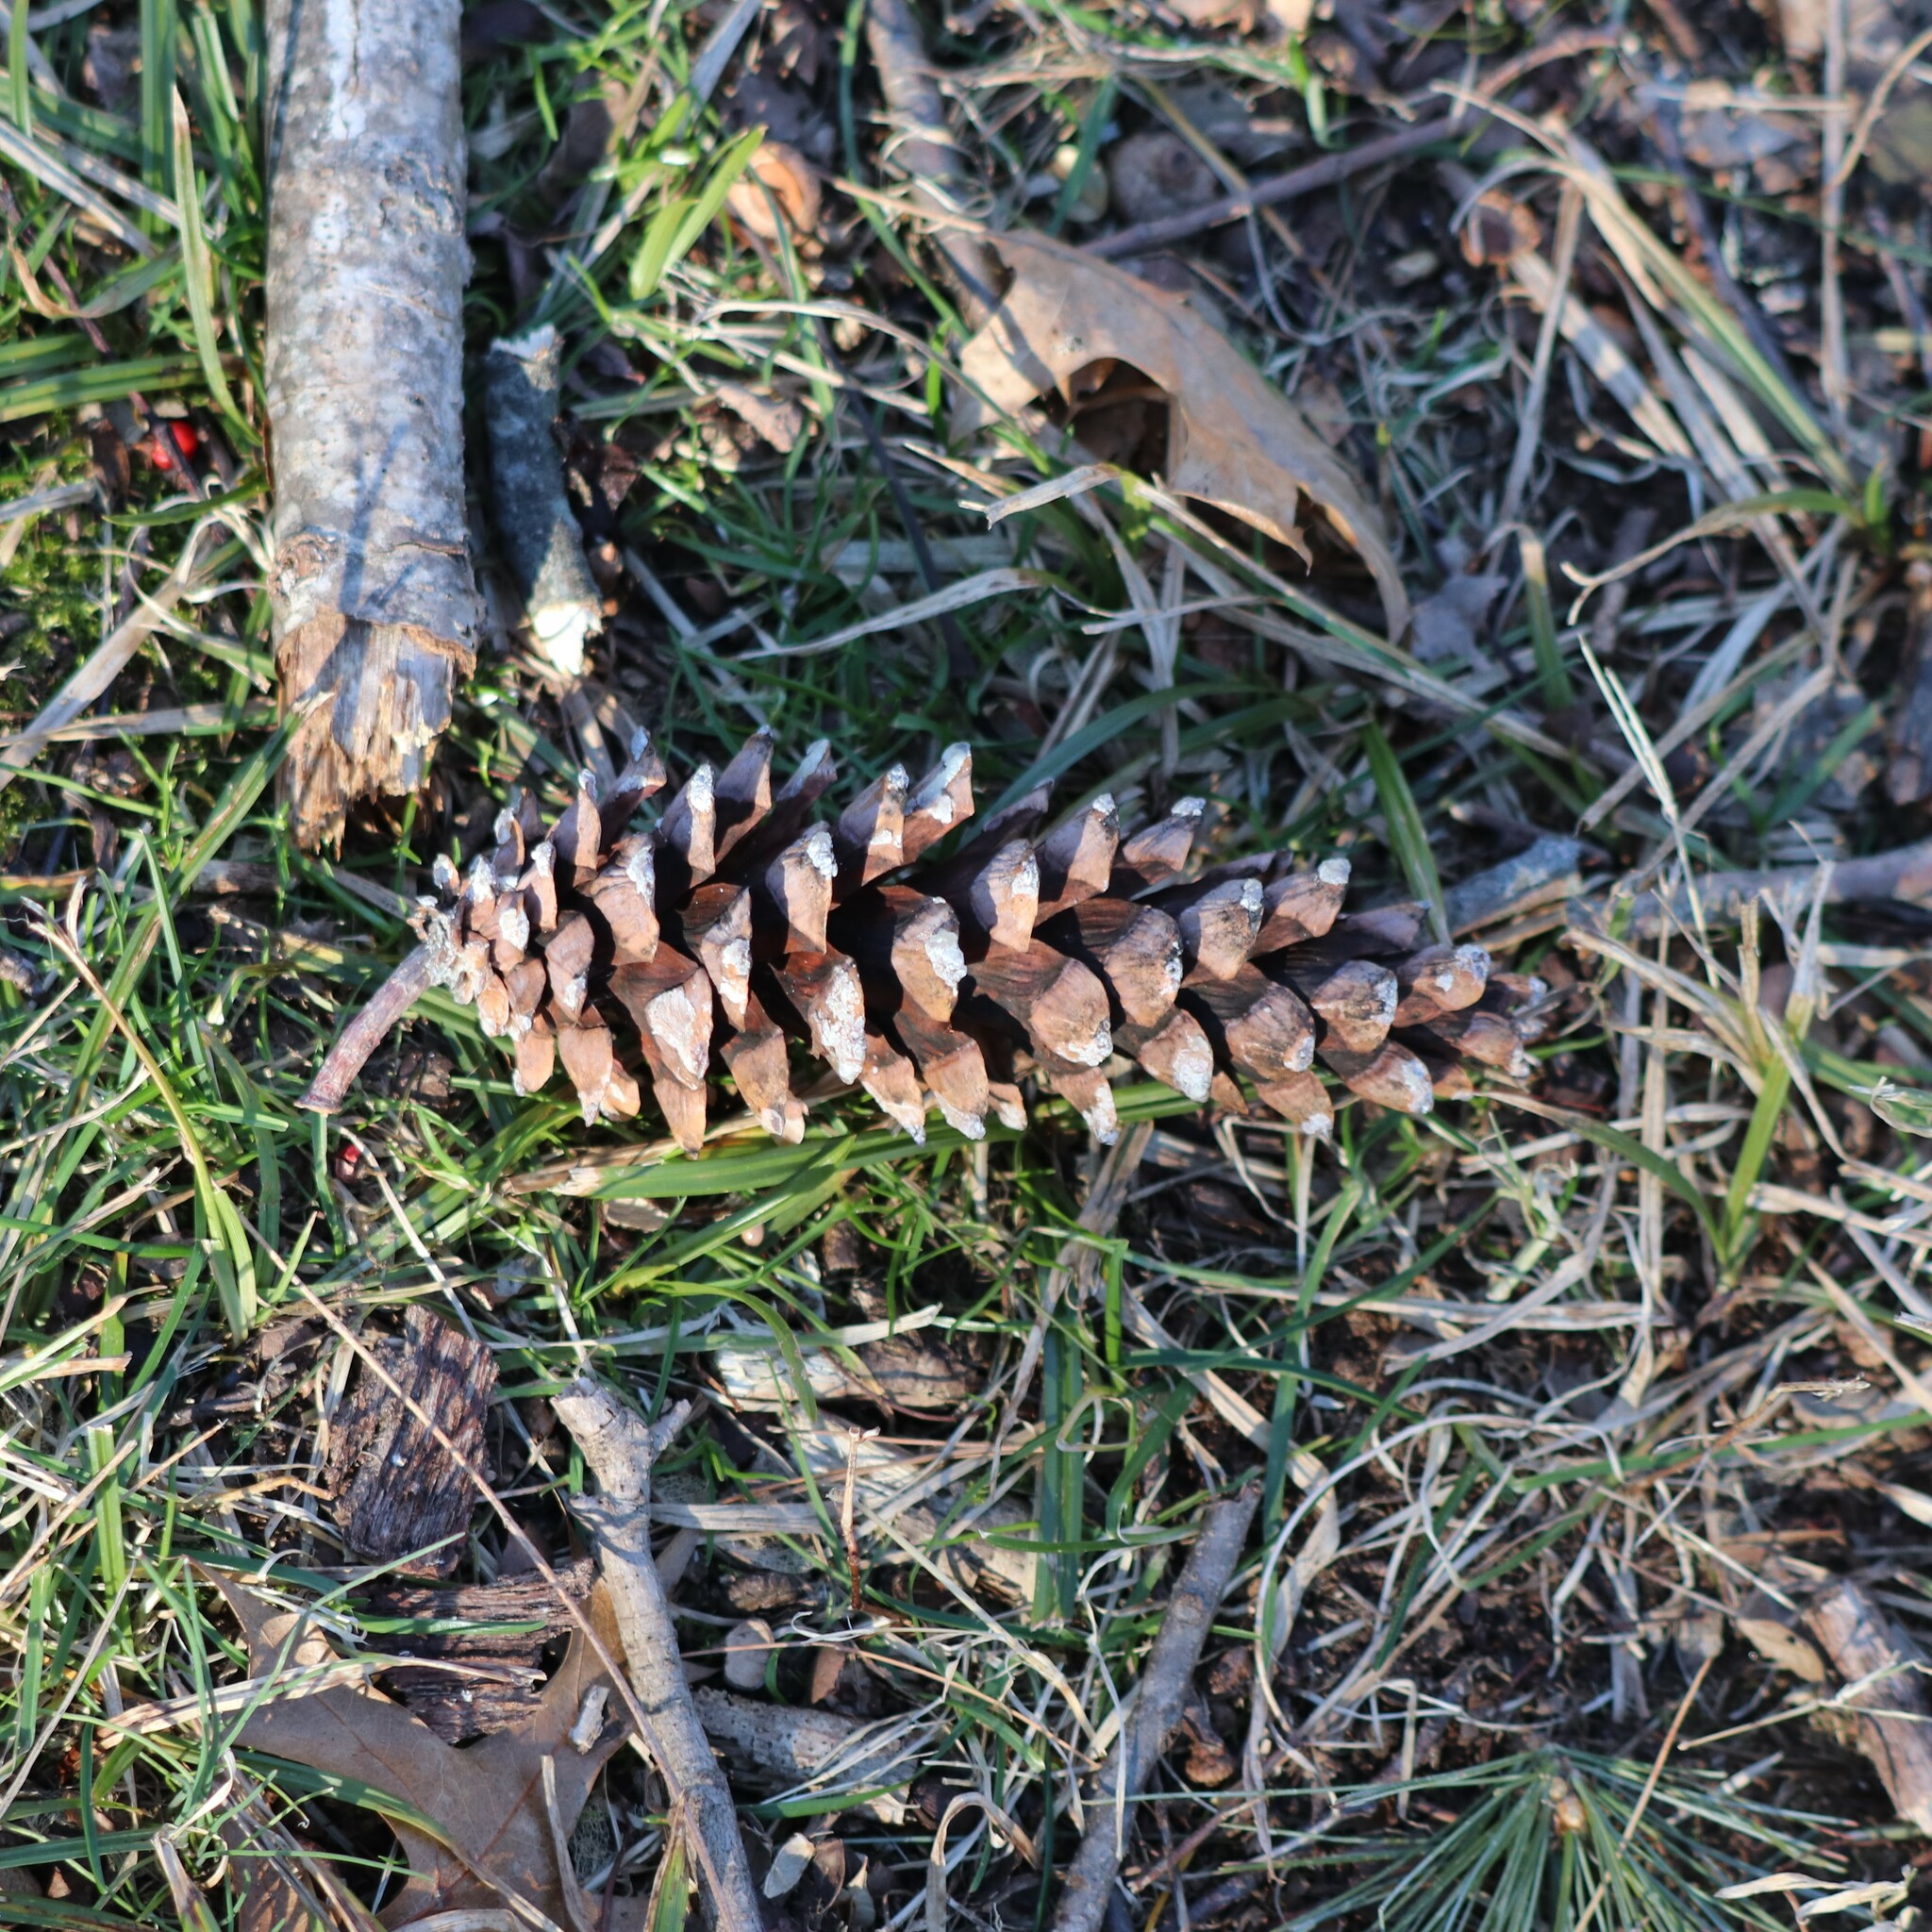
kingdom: Plantae
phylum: Tracheophyta
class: Pinopsida
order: Pinales
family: Pinaceae
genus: Pinus
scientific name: Pinus strobus
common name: Weymouth pine
